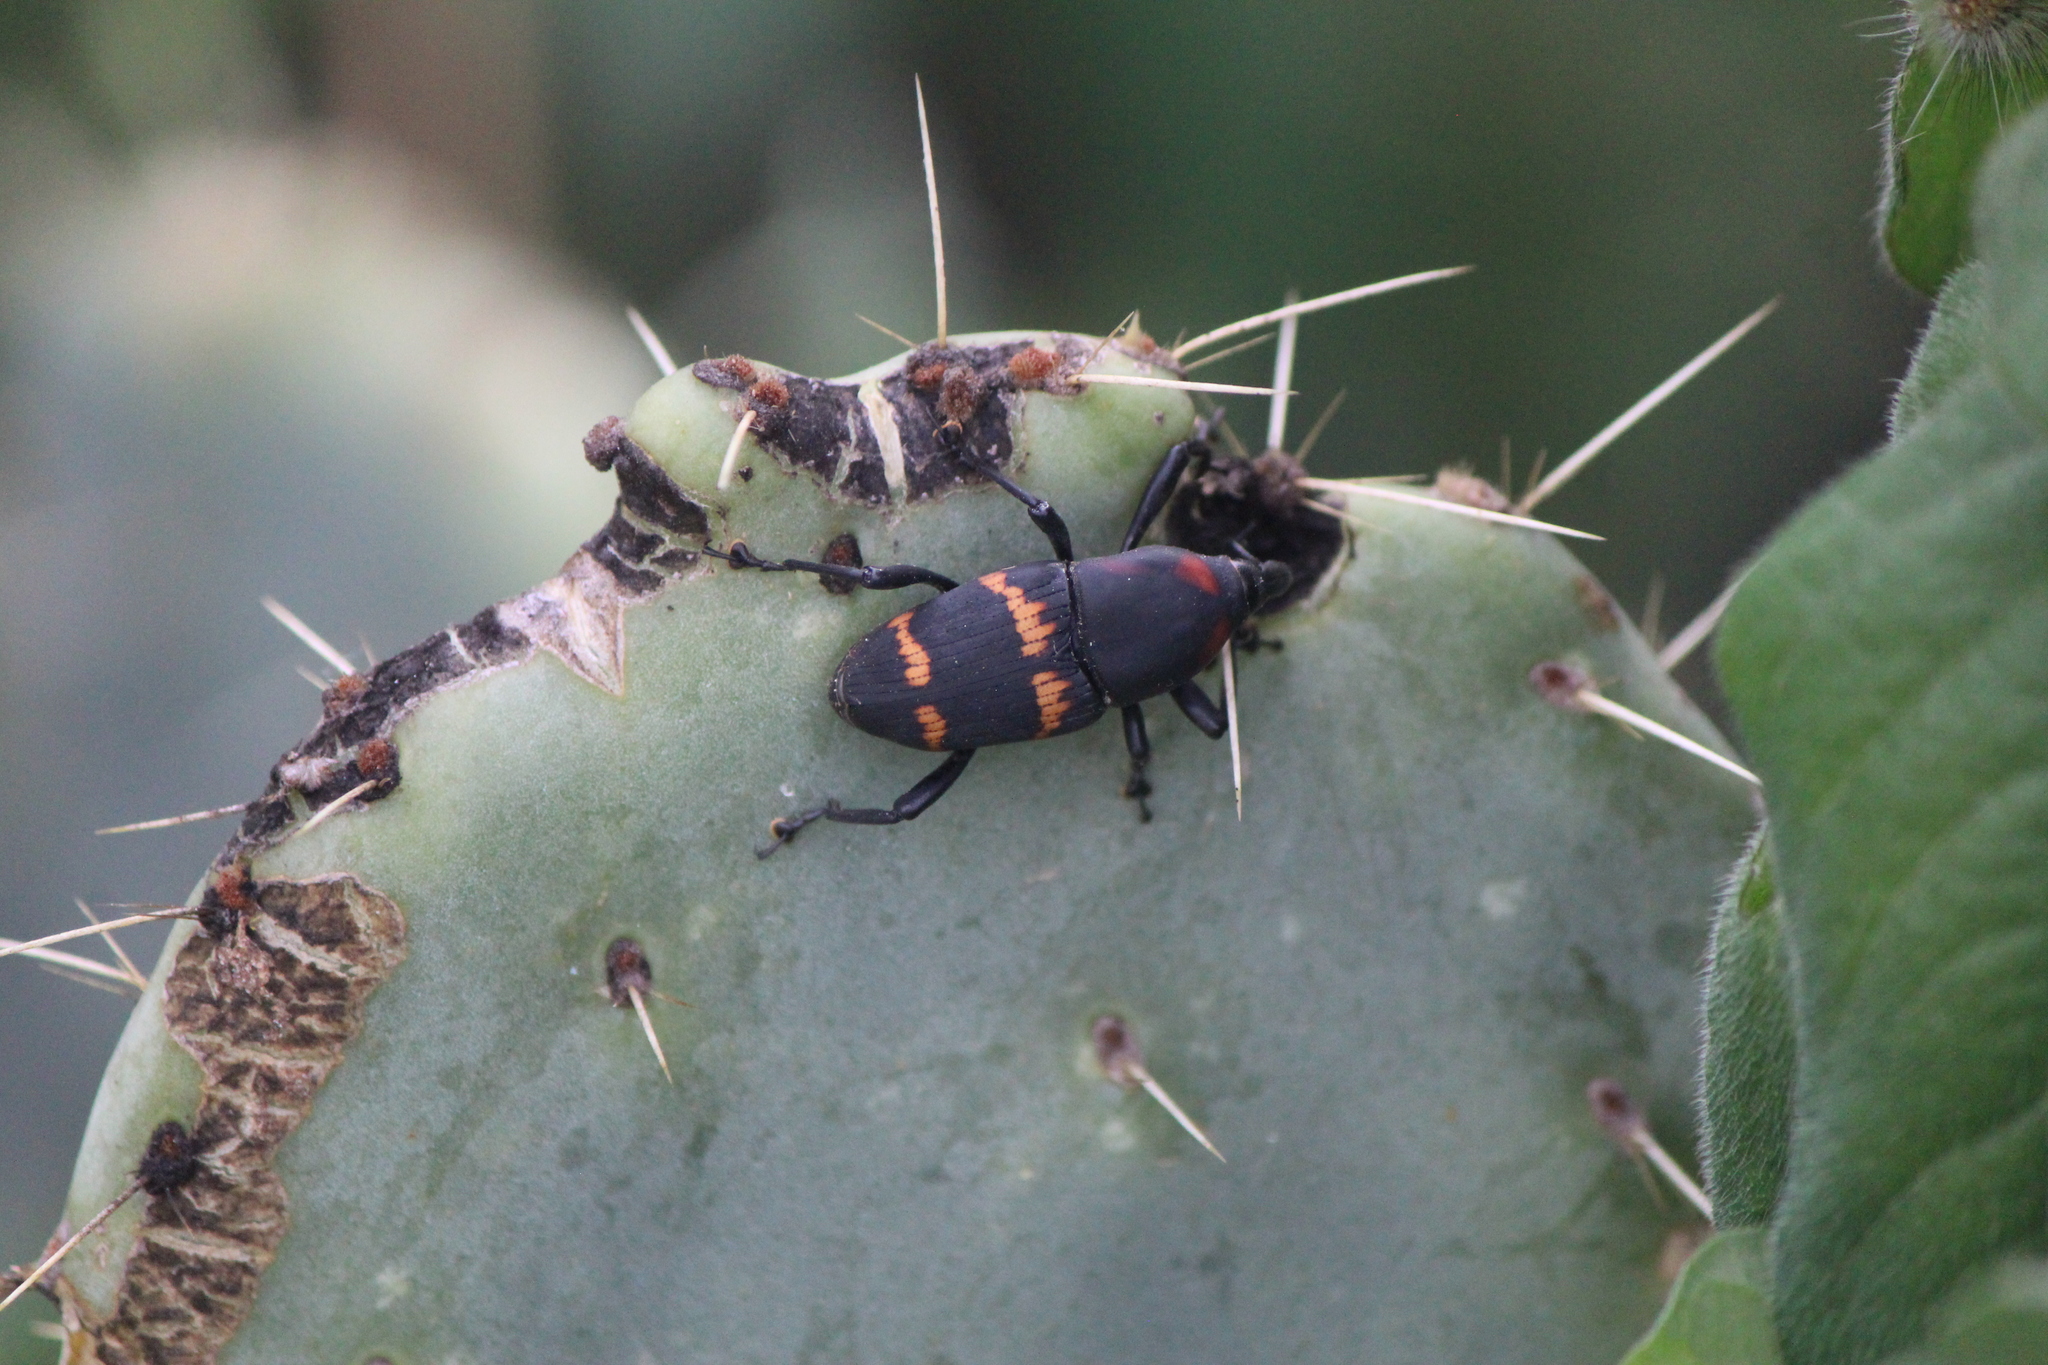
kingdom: Animalia
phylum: Arthropoda
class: Insecta
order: Coleoptera
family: Dryophthoridae
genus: Cactophagus
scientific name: Cactophagus spinolae
